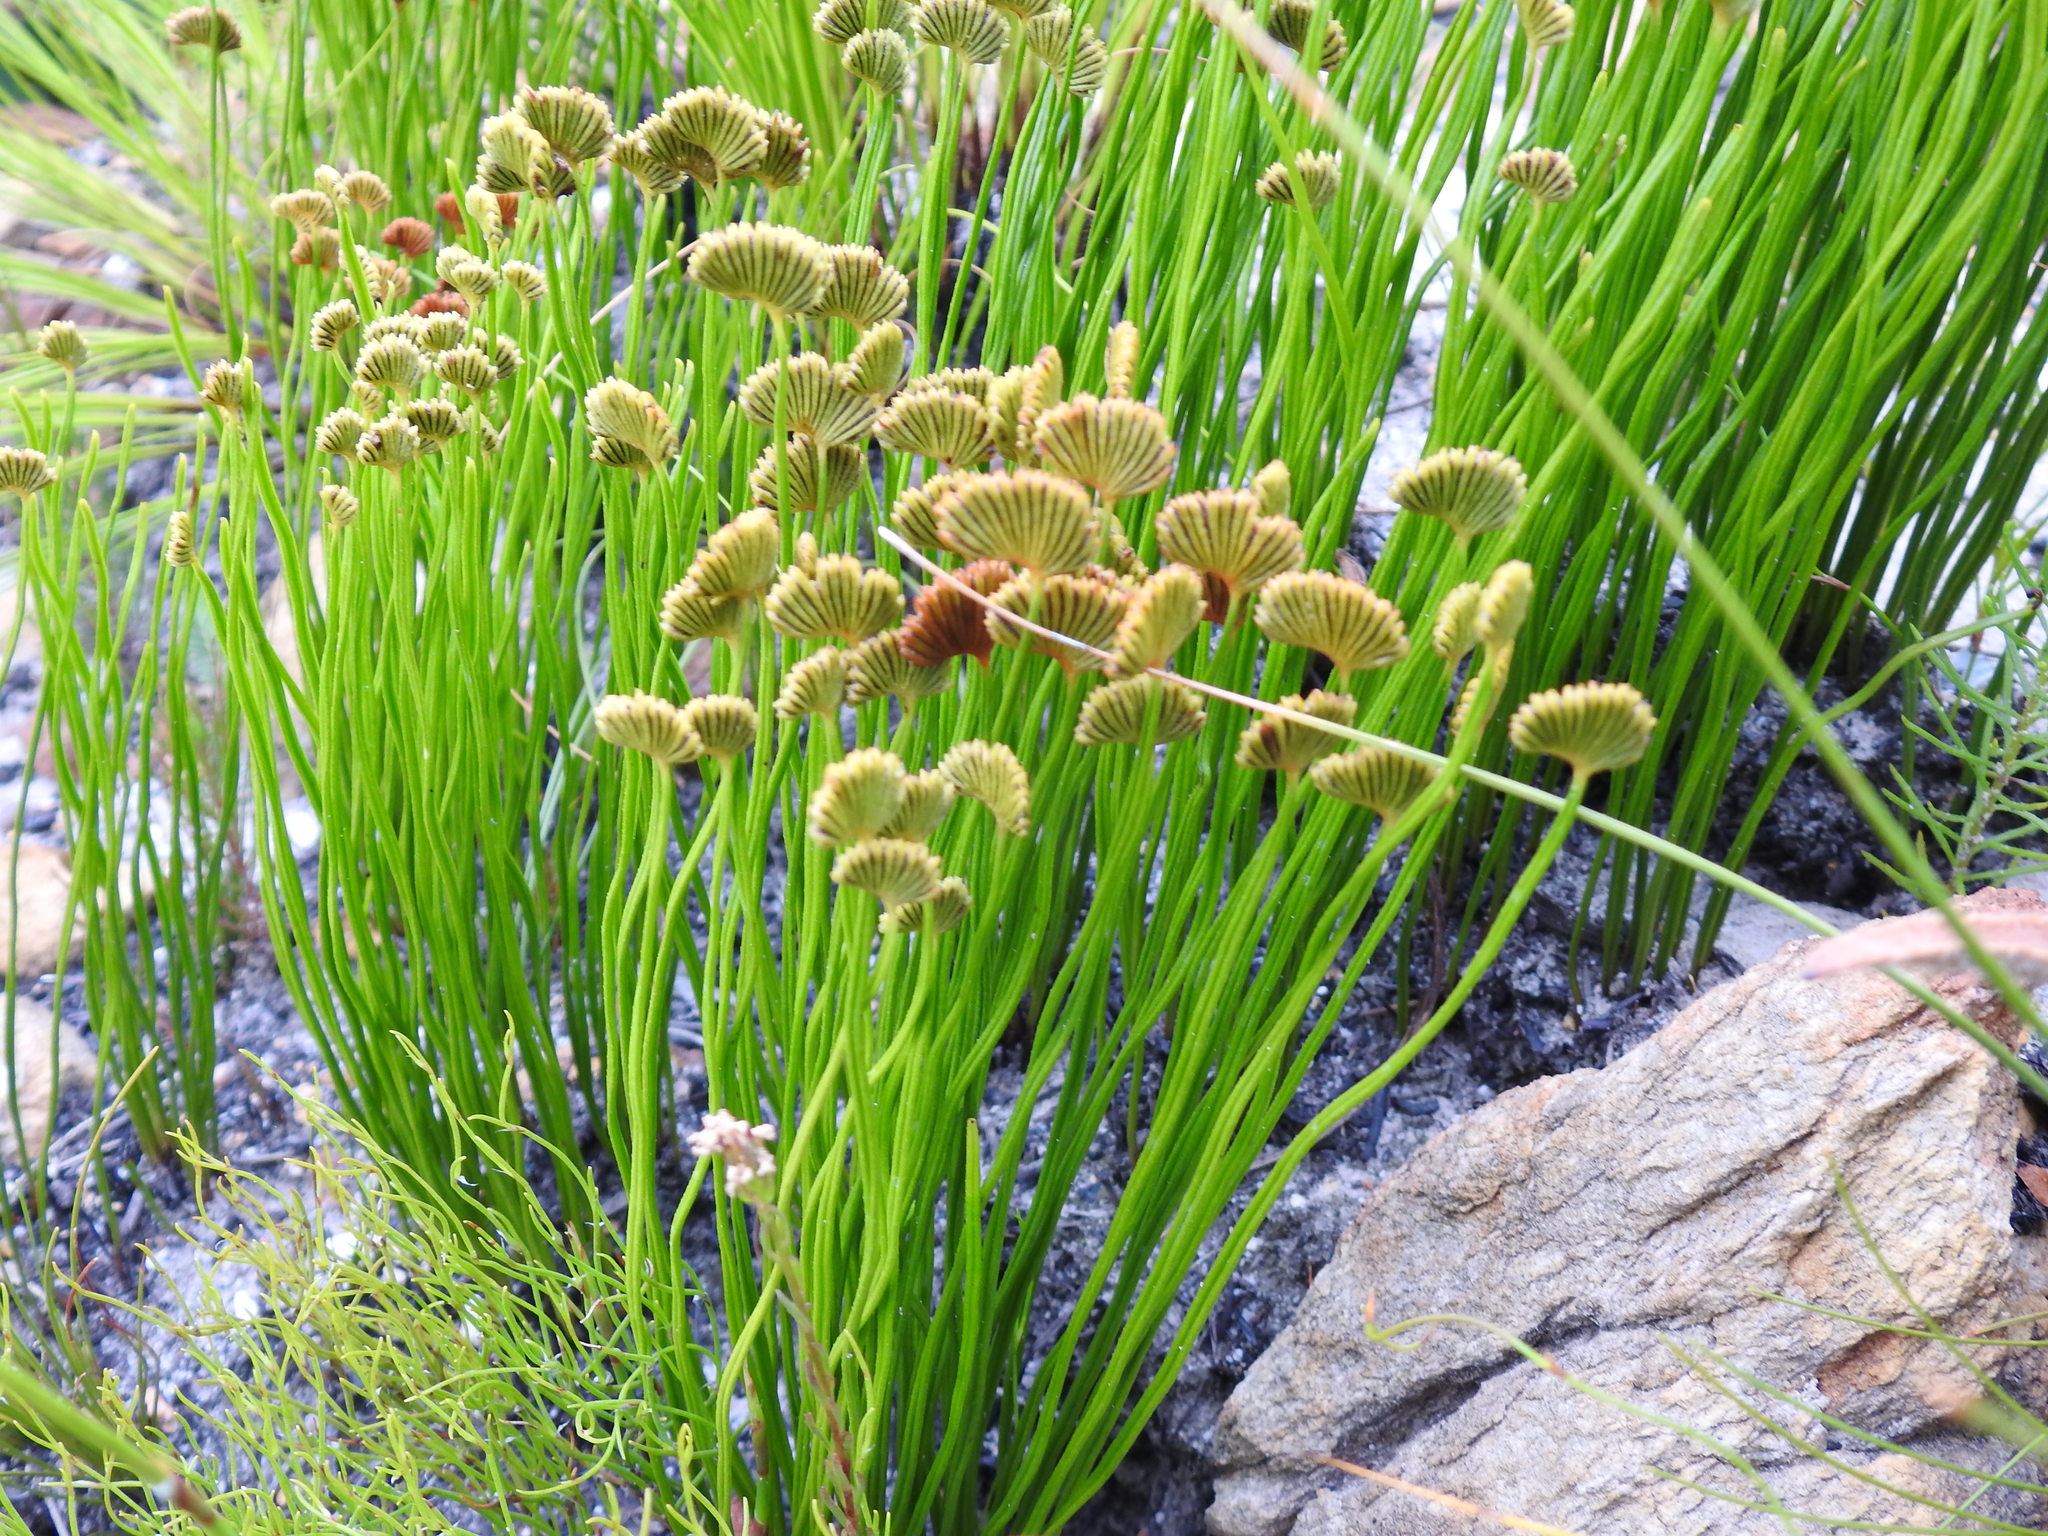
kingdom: Plantae
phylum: Tracheophyta
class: Polypodiopsida
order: Schizaeales
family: Schizaeaceae
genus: Schizaea
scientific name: Schizaea pectinata
